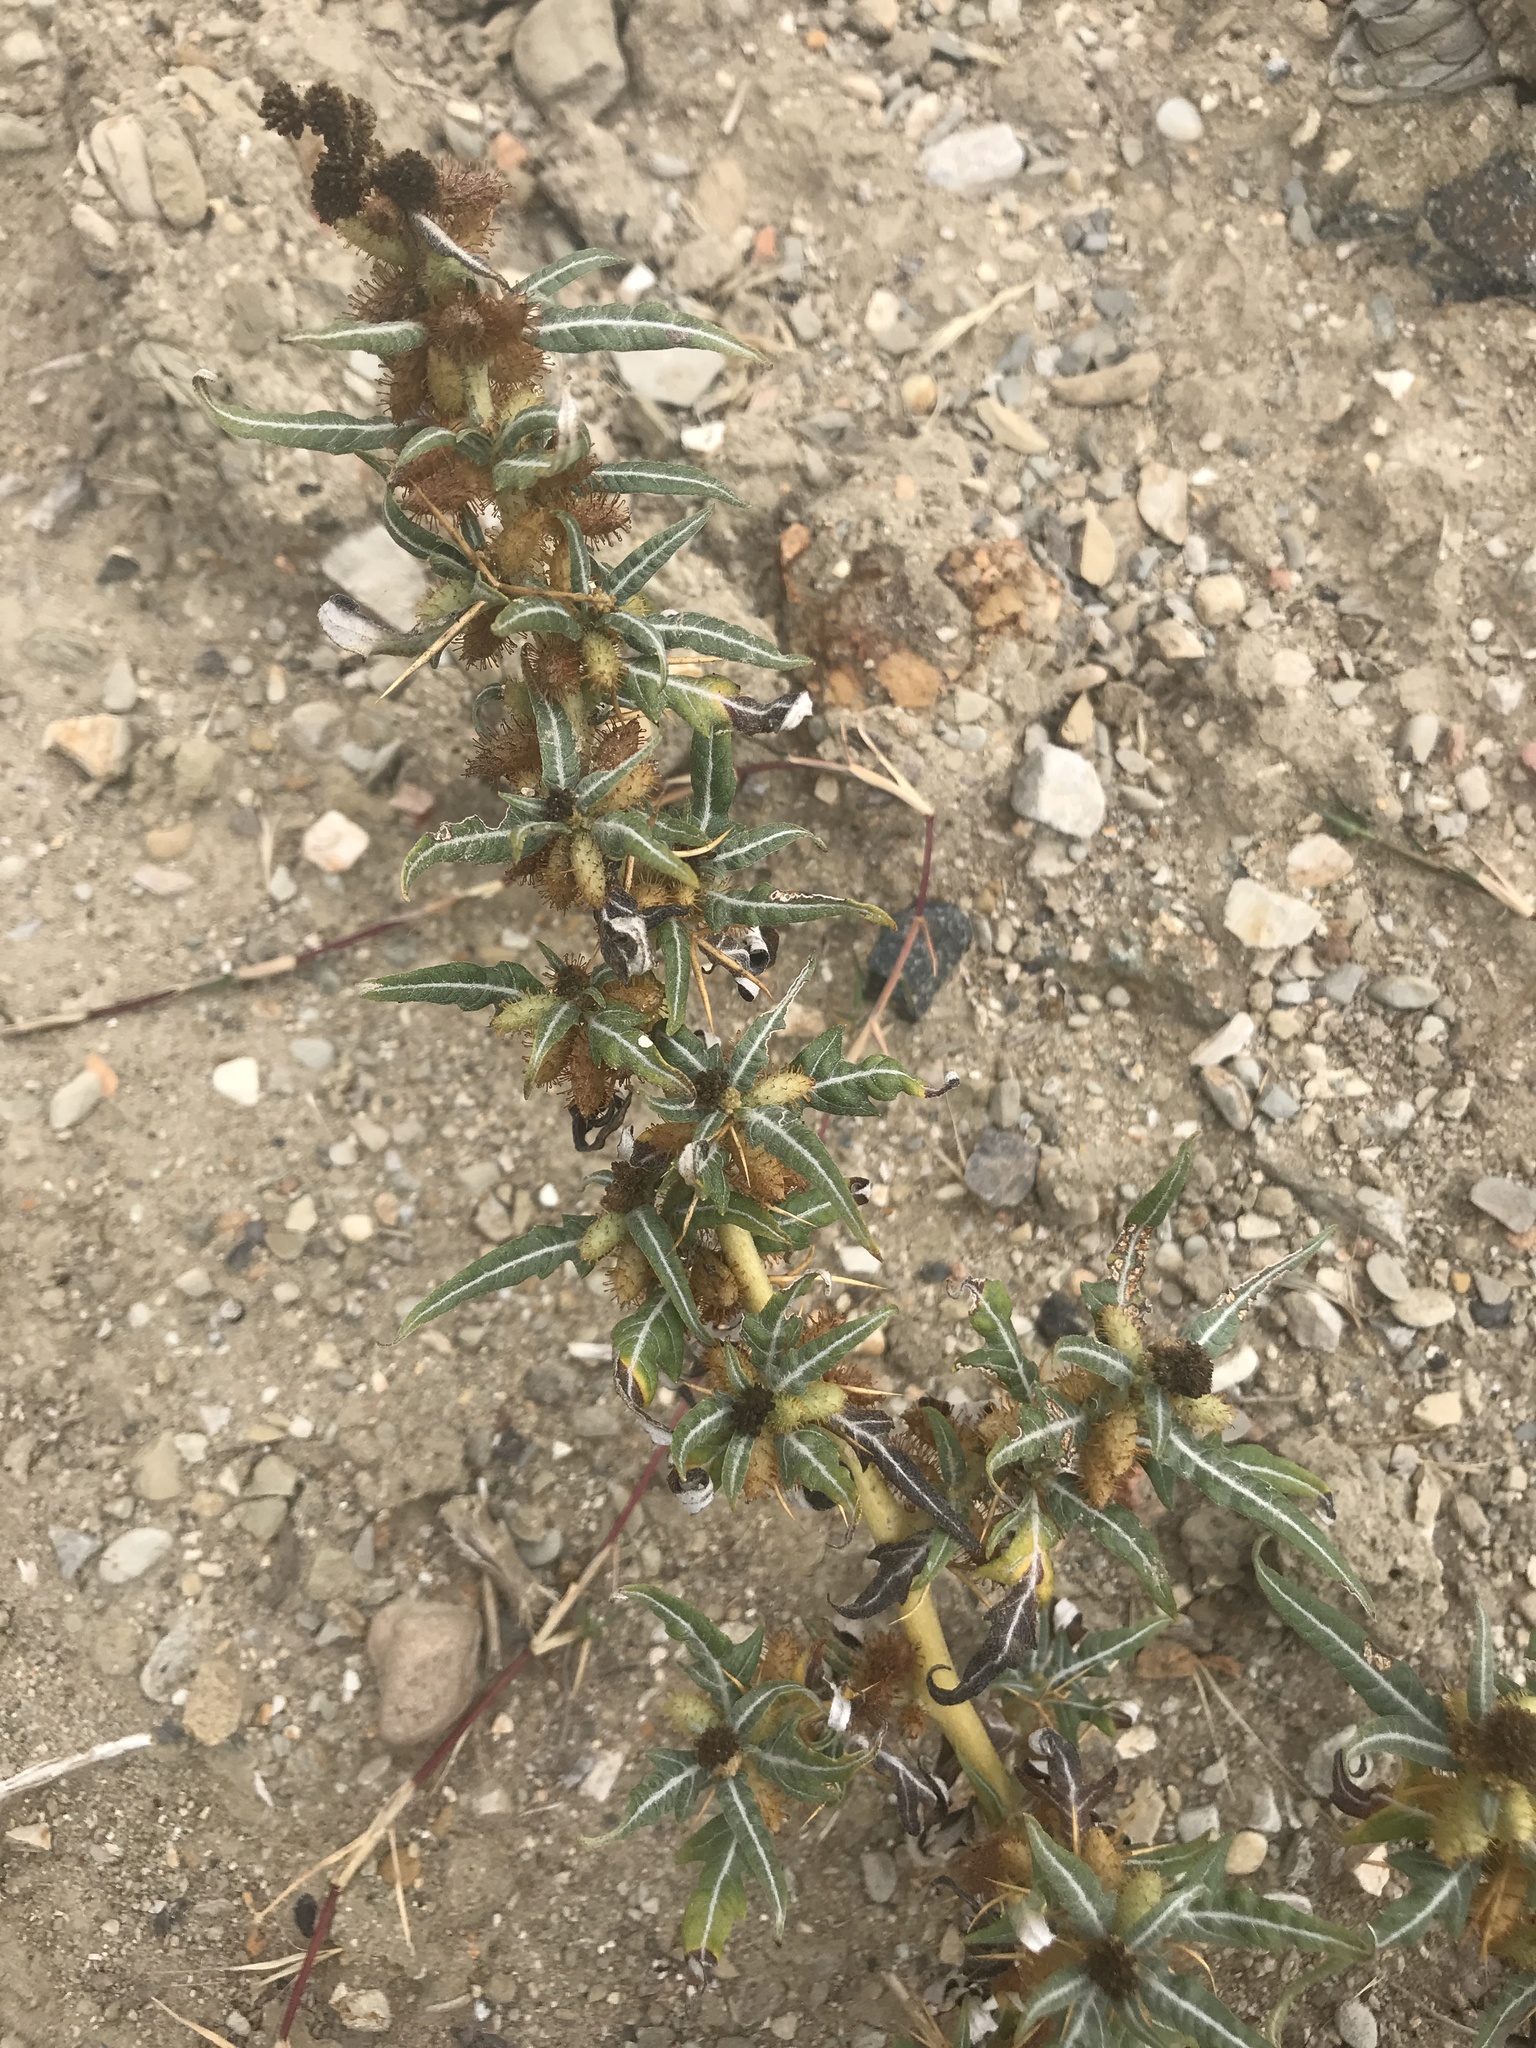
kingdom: Plantae
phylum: Tracheophyta
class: Magnoliopsida
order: Asterales
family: Asteraceae
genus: Xanthium
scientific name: Xanthium spinosum
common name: Spiny cocklebur
